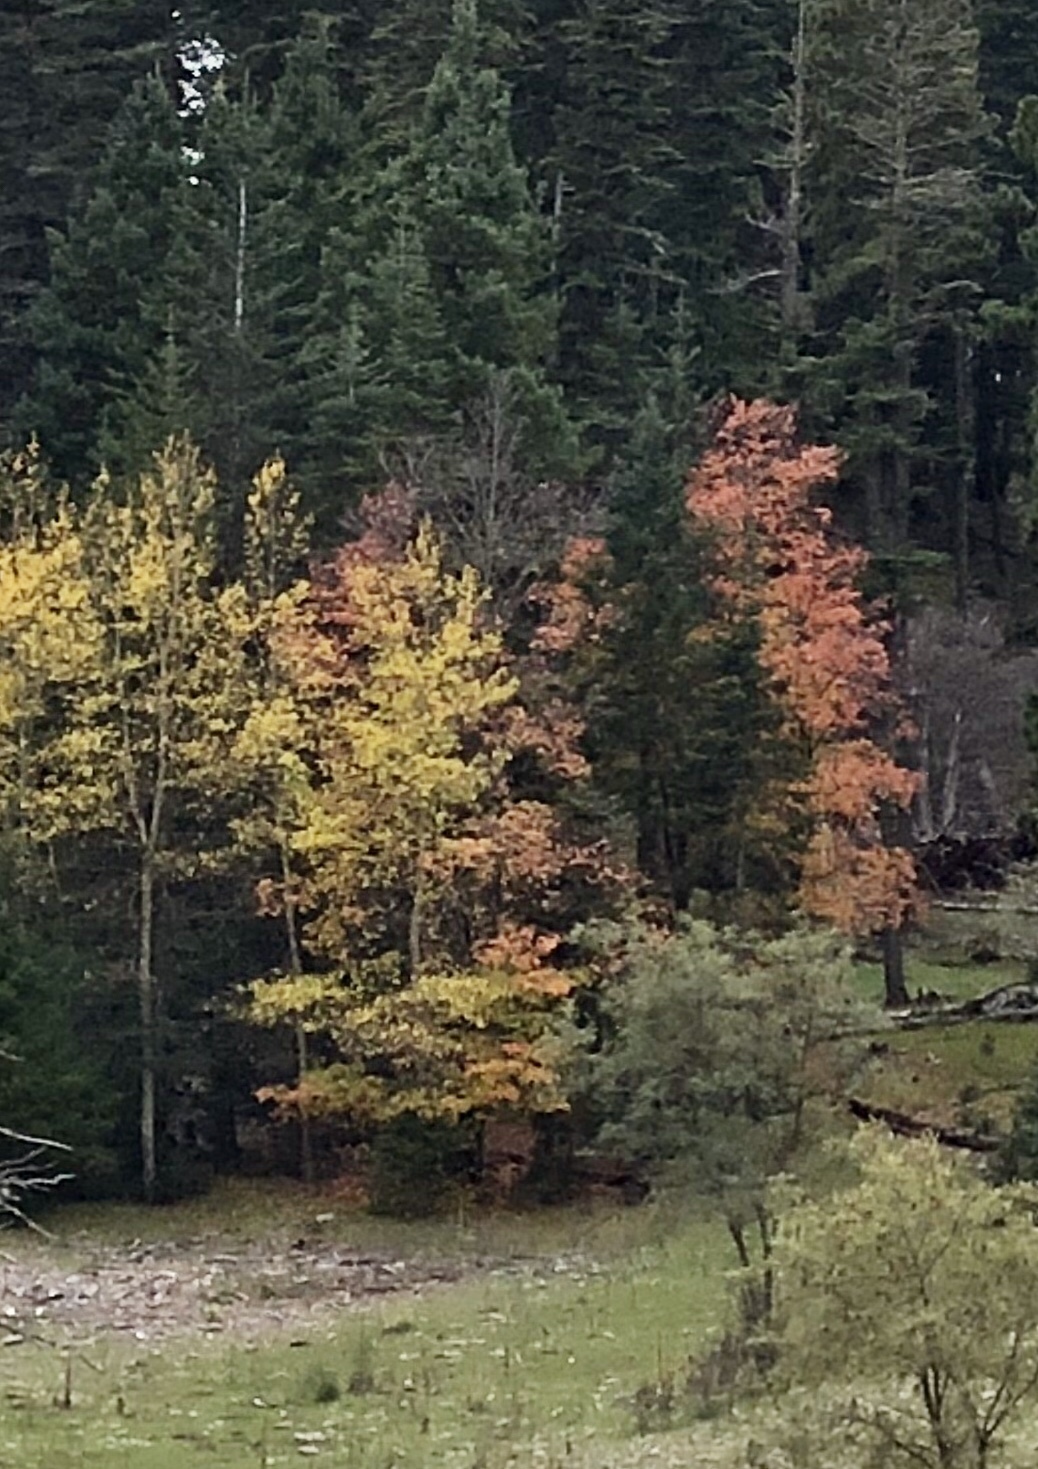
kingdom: Plantae
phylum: Tracheophyta
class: Magnoliopsida
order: Sapindales
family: Sapindaceae
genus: Acer
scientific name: Acer grandidentatum
